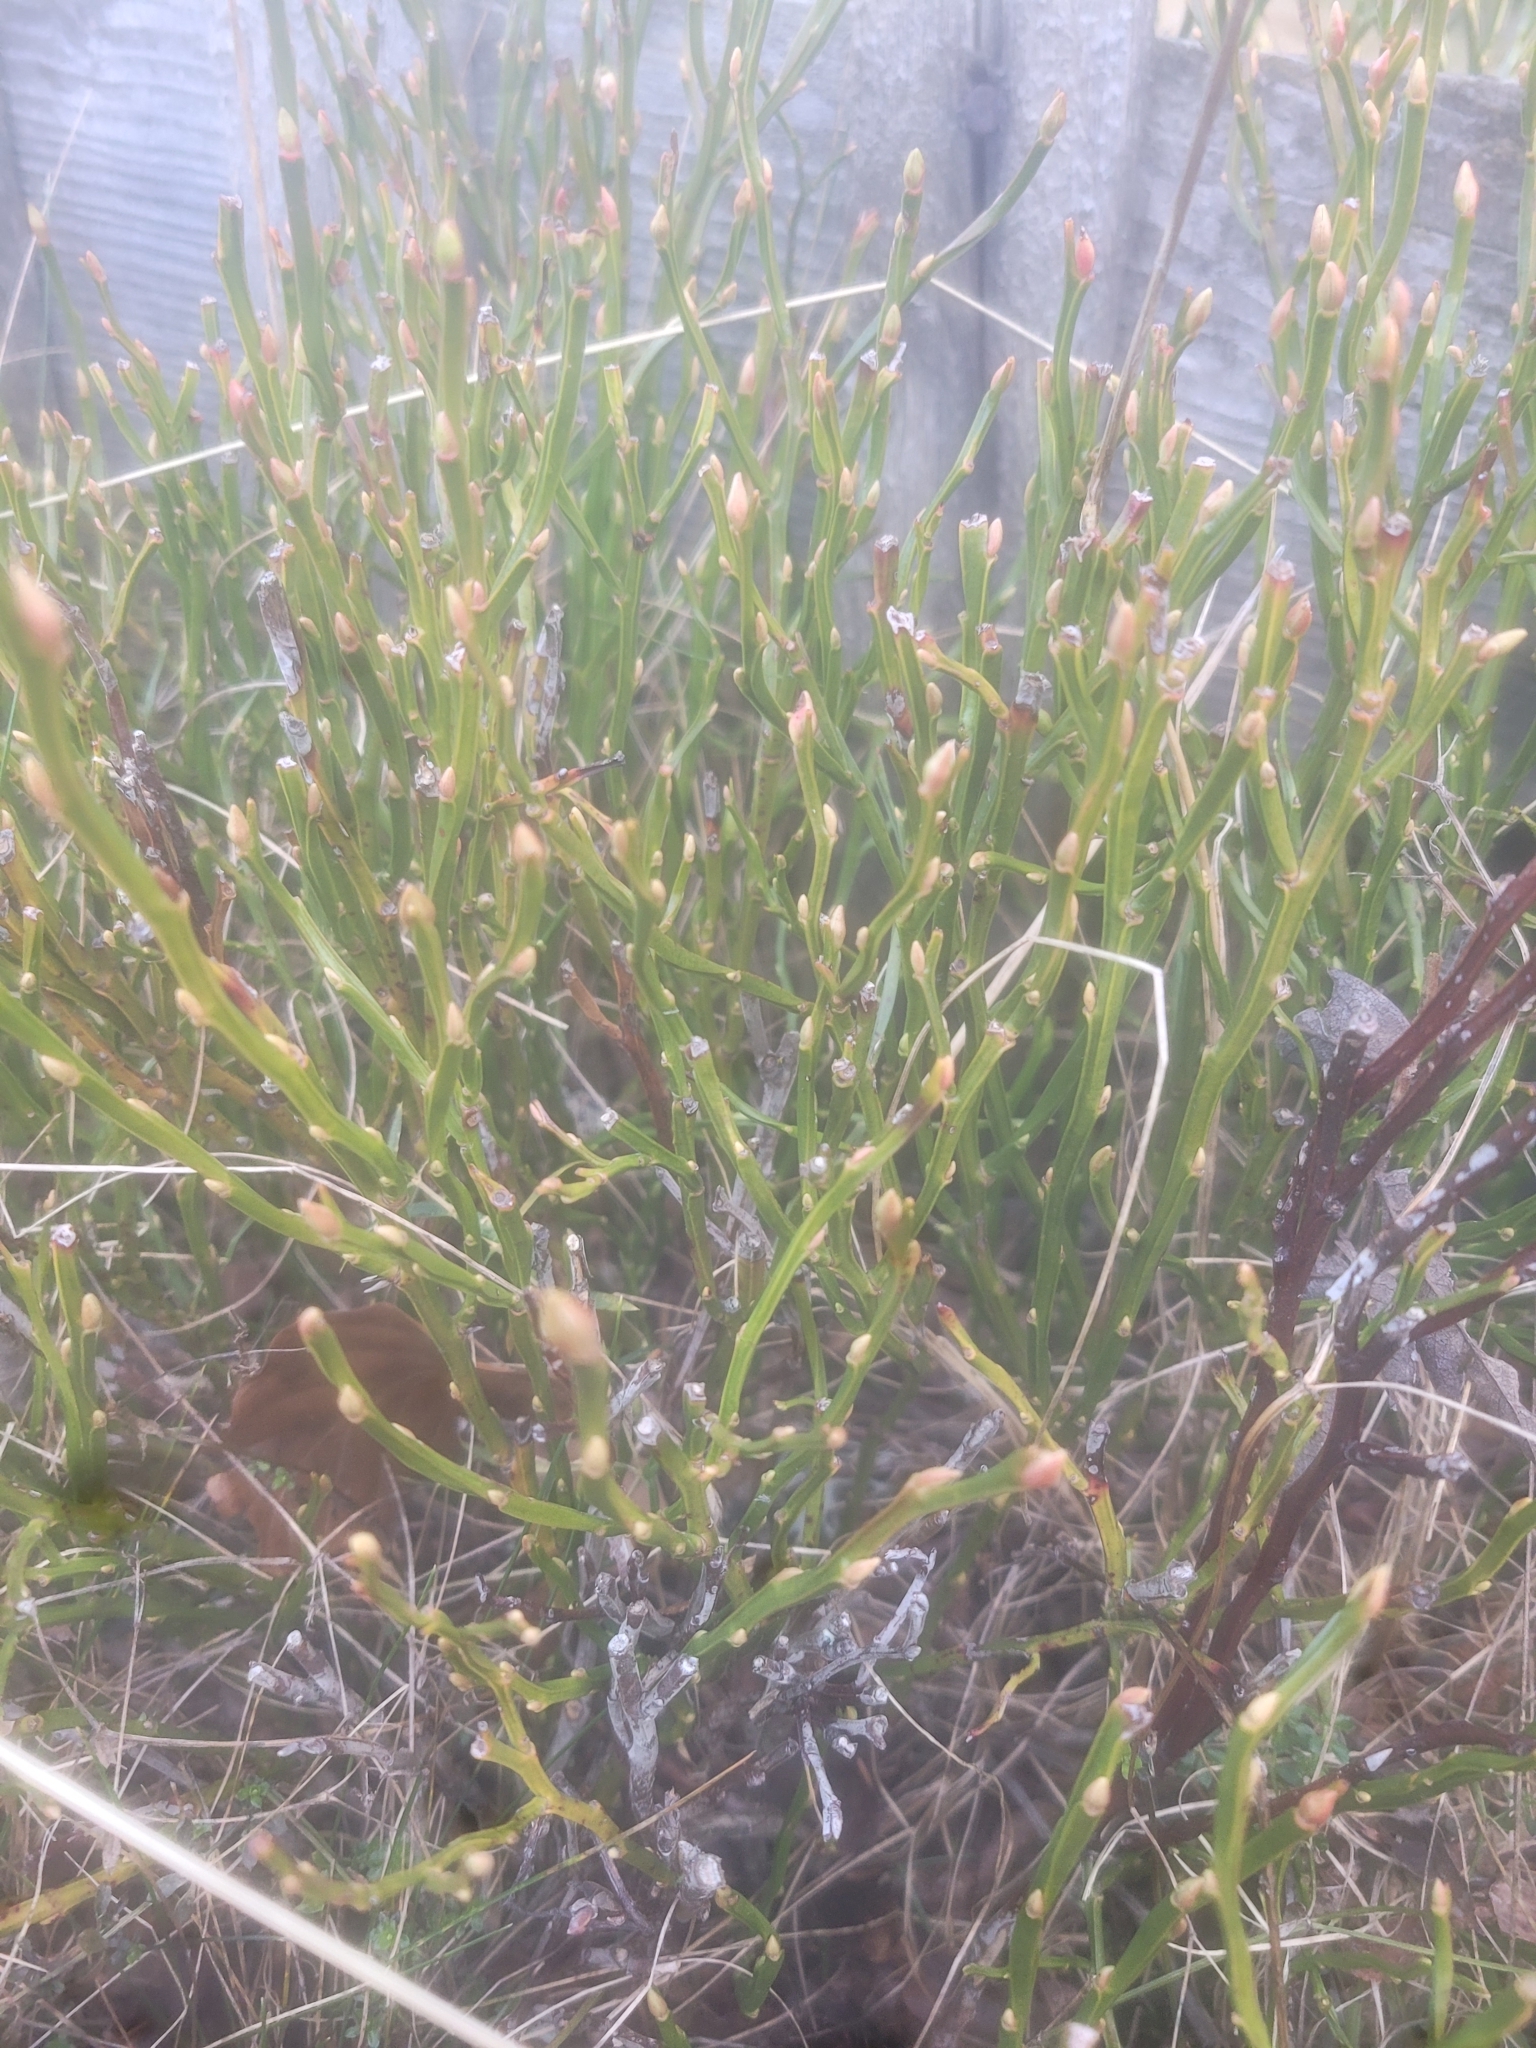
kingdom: Plantae
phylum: Tracheophyta
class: Magnoliopsida
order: Ericales
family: Ericaceae
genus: Vaccinium
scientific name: Vaccinium myrtillus
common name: Bilberry
